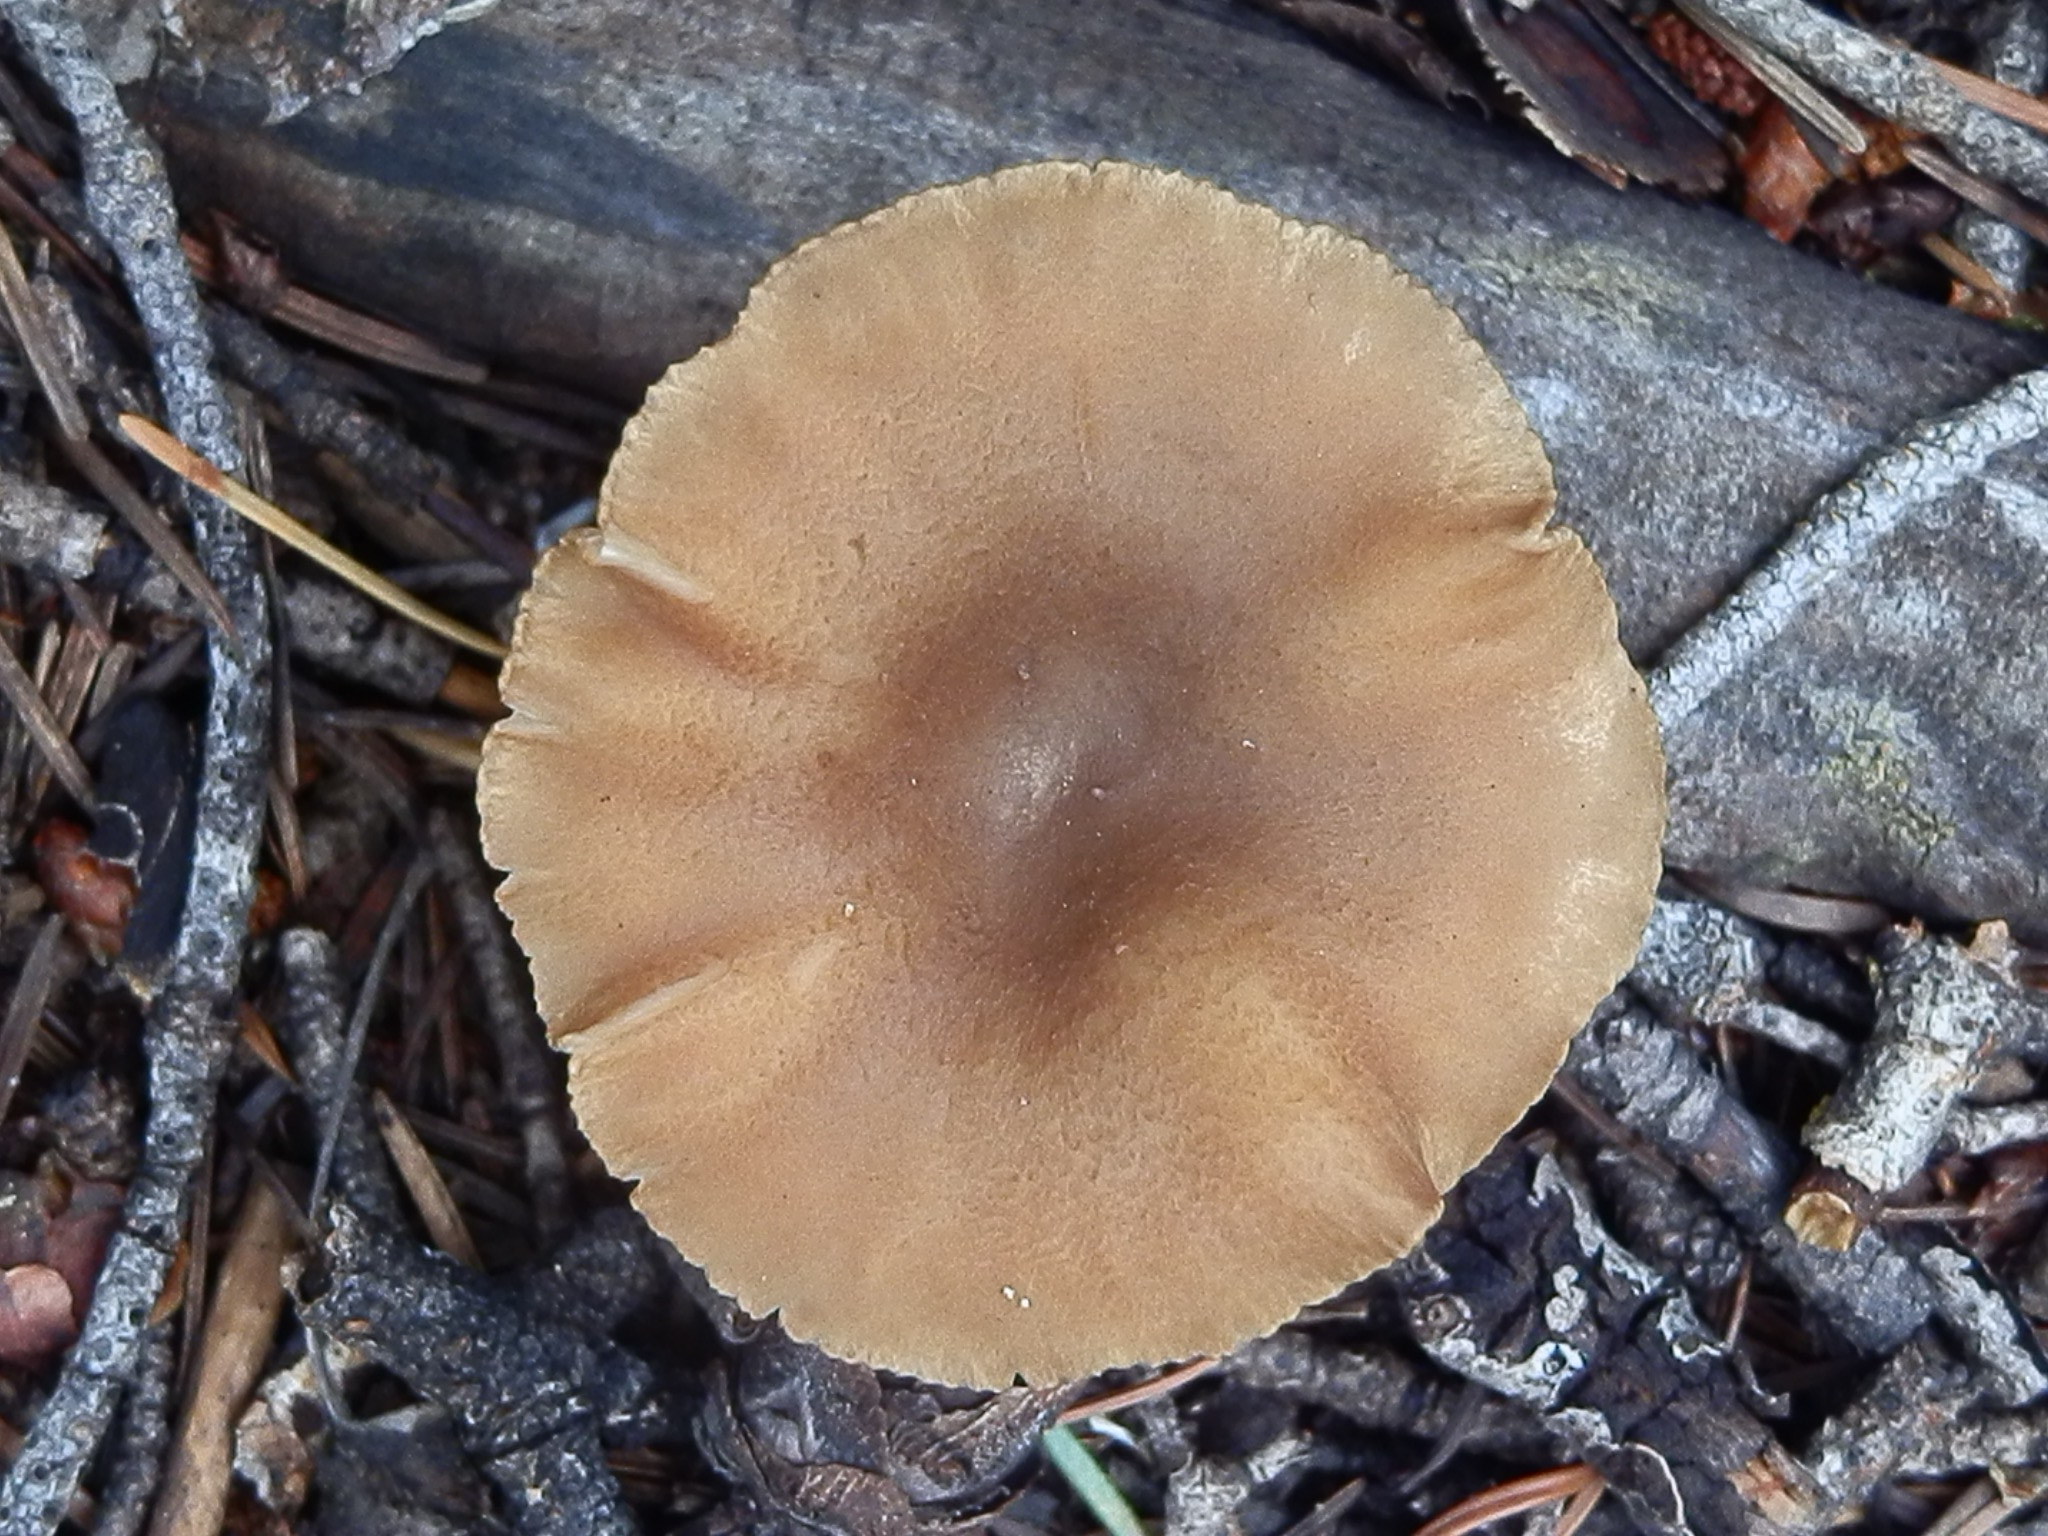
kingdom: Fungi
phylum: Basidiomycota
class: Agaricomycetes
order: Agaricales
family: Tricholomataceae
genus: Infundibulicybe
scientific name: Infundibulicybe squamulosa
